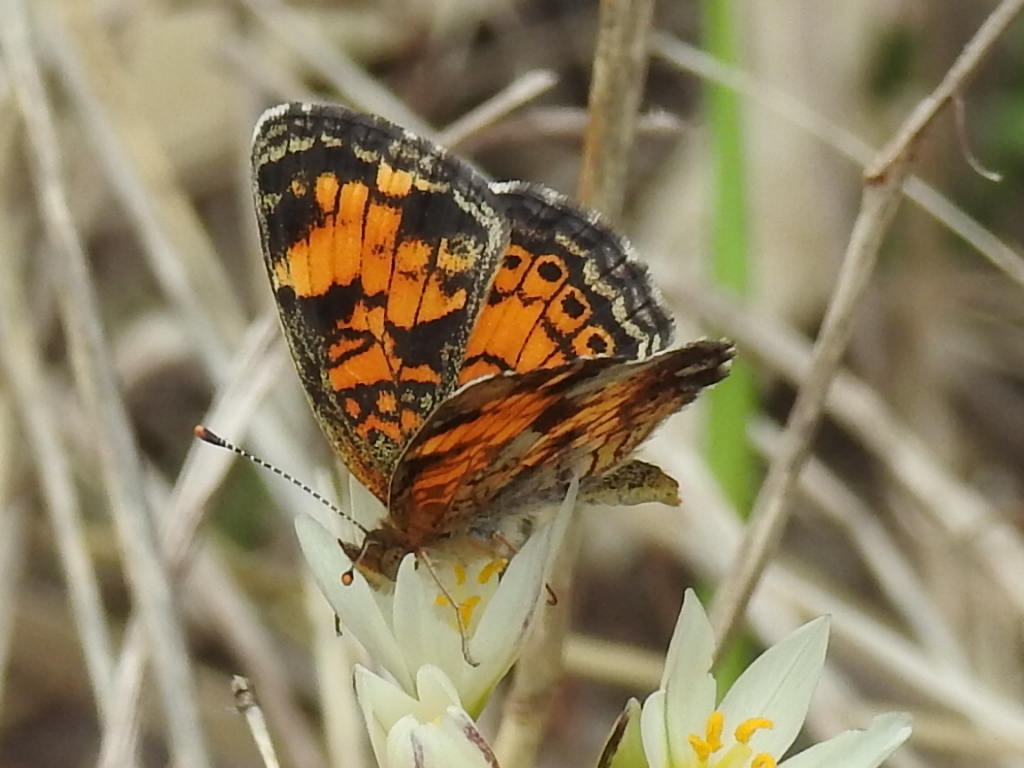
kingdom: Animalia
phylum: Arthropoda
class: Insecta
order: Lepidoptera
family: Nymphalidae
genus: Phyciodes
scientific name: Phyciodes tharos
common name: Pearl crescent
